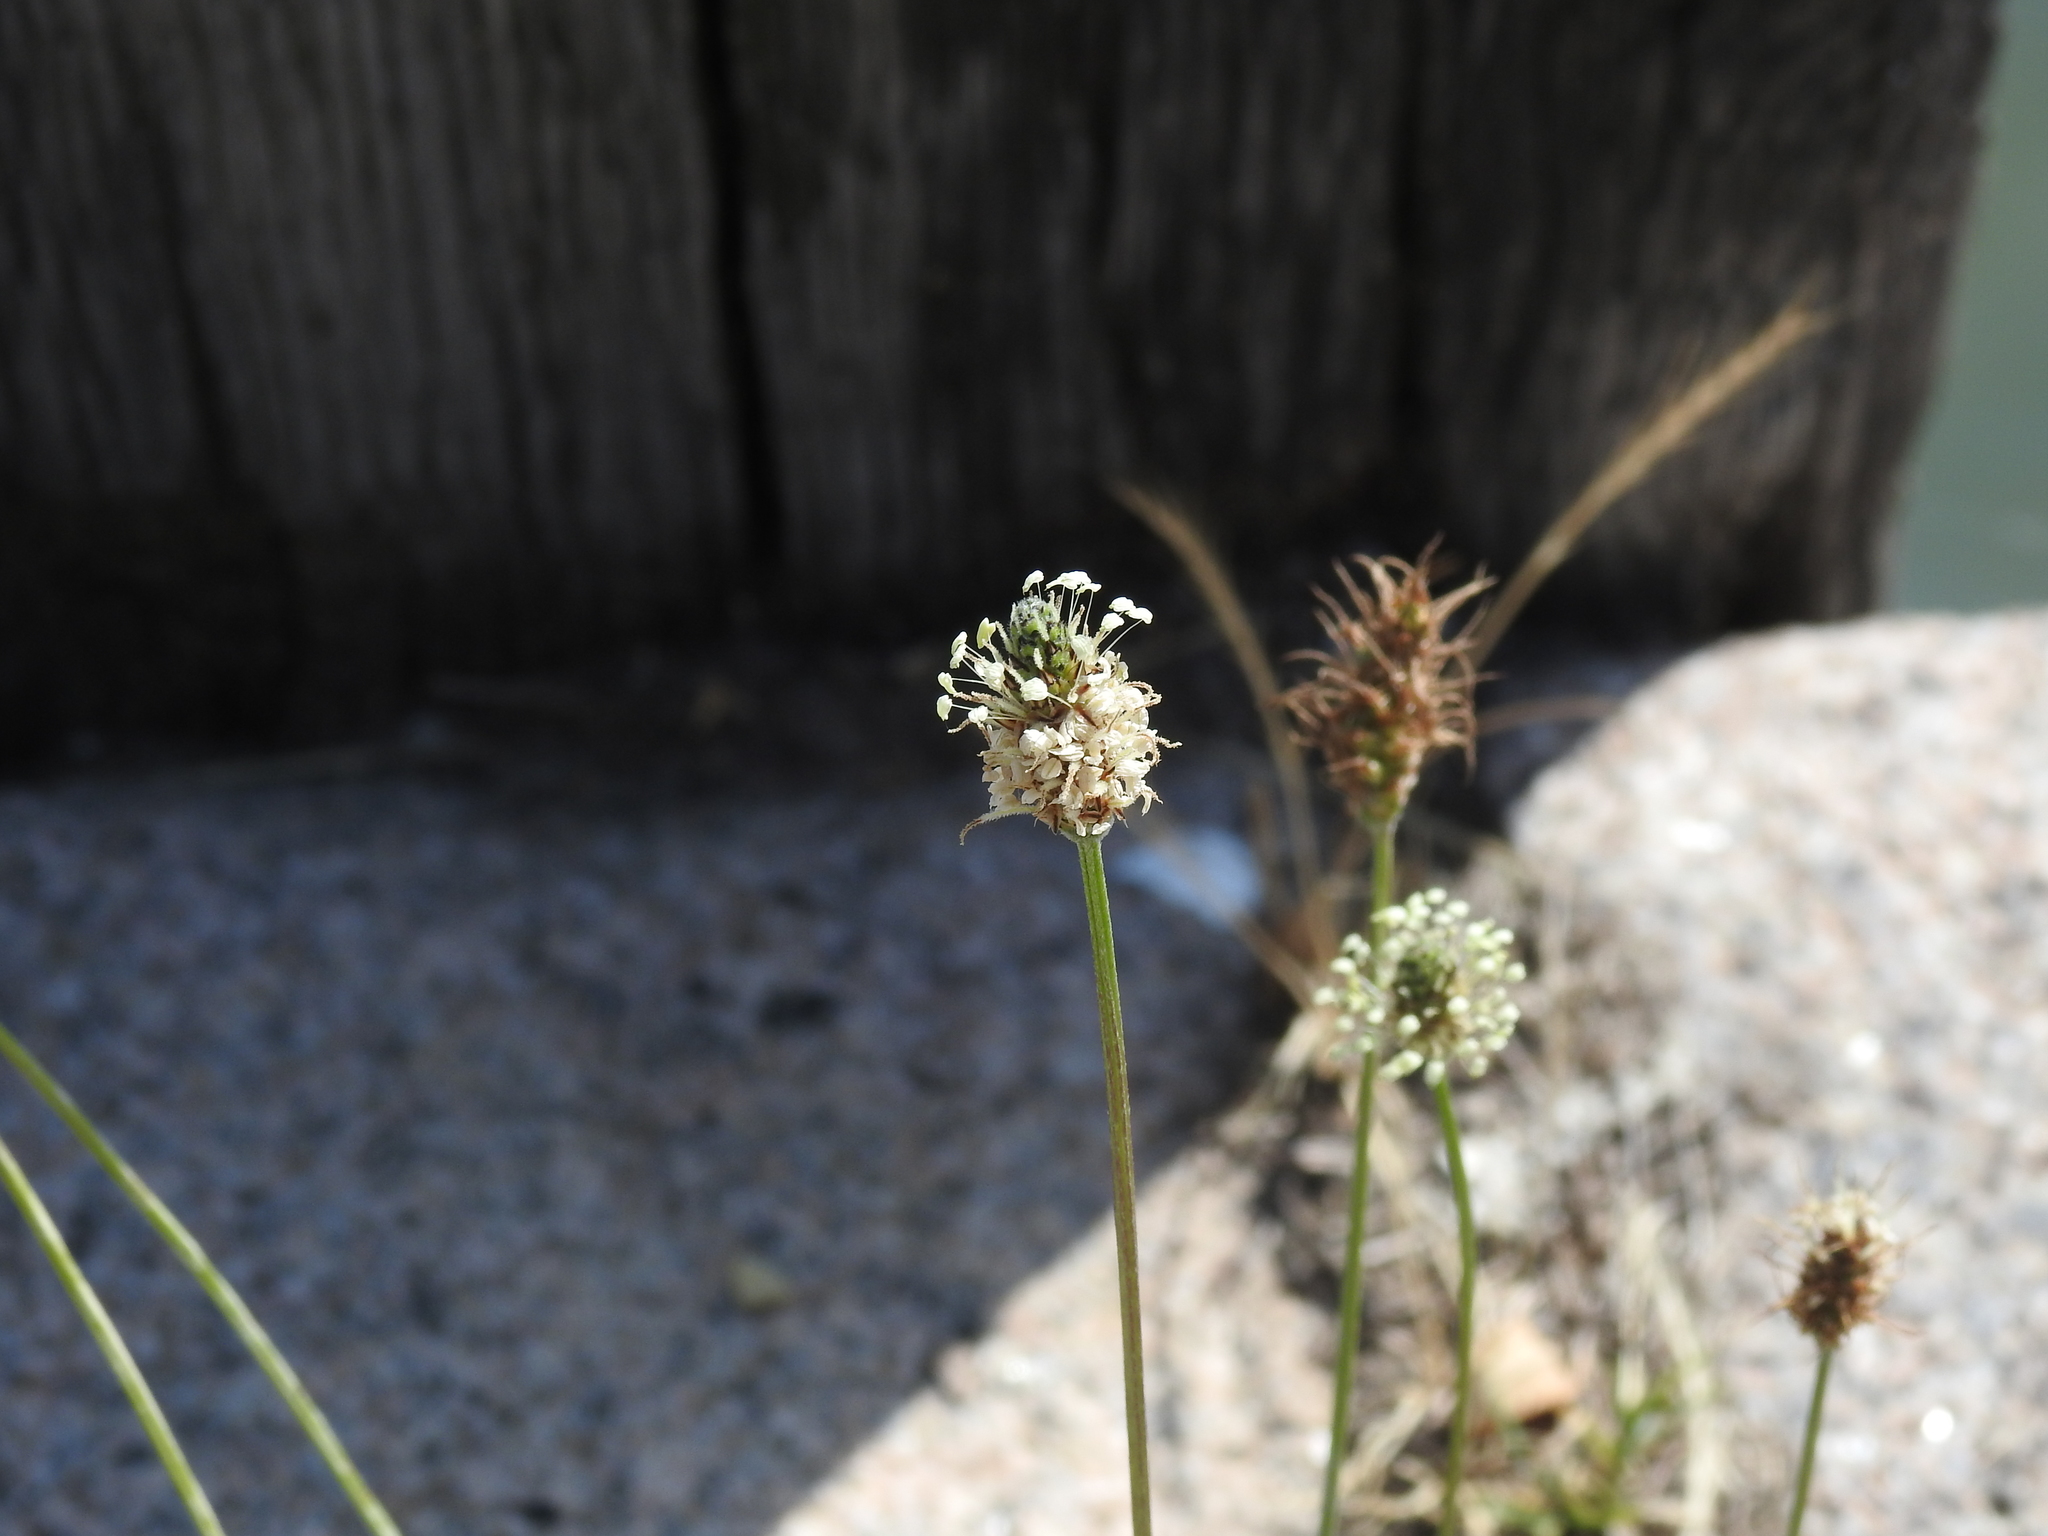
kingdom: Plantae
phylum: Tracheophyta
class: Magnoliopsida
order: Lamiales
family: Plantaginaceae
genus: Plantago
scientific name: Plantago lanceolata
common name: Ribwort plantain
